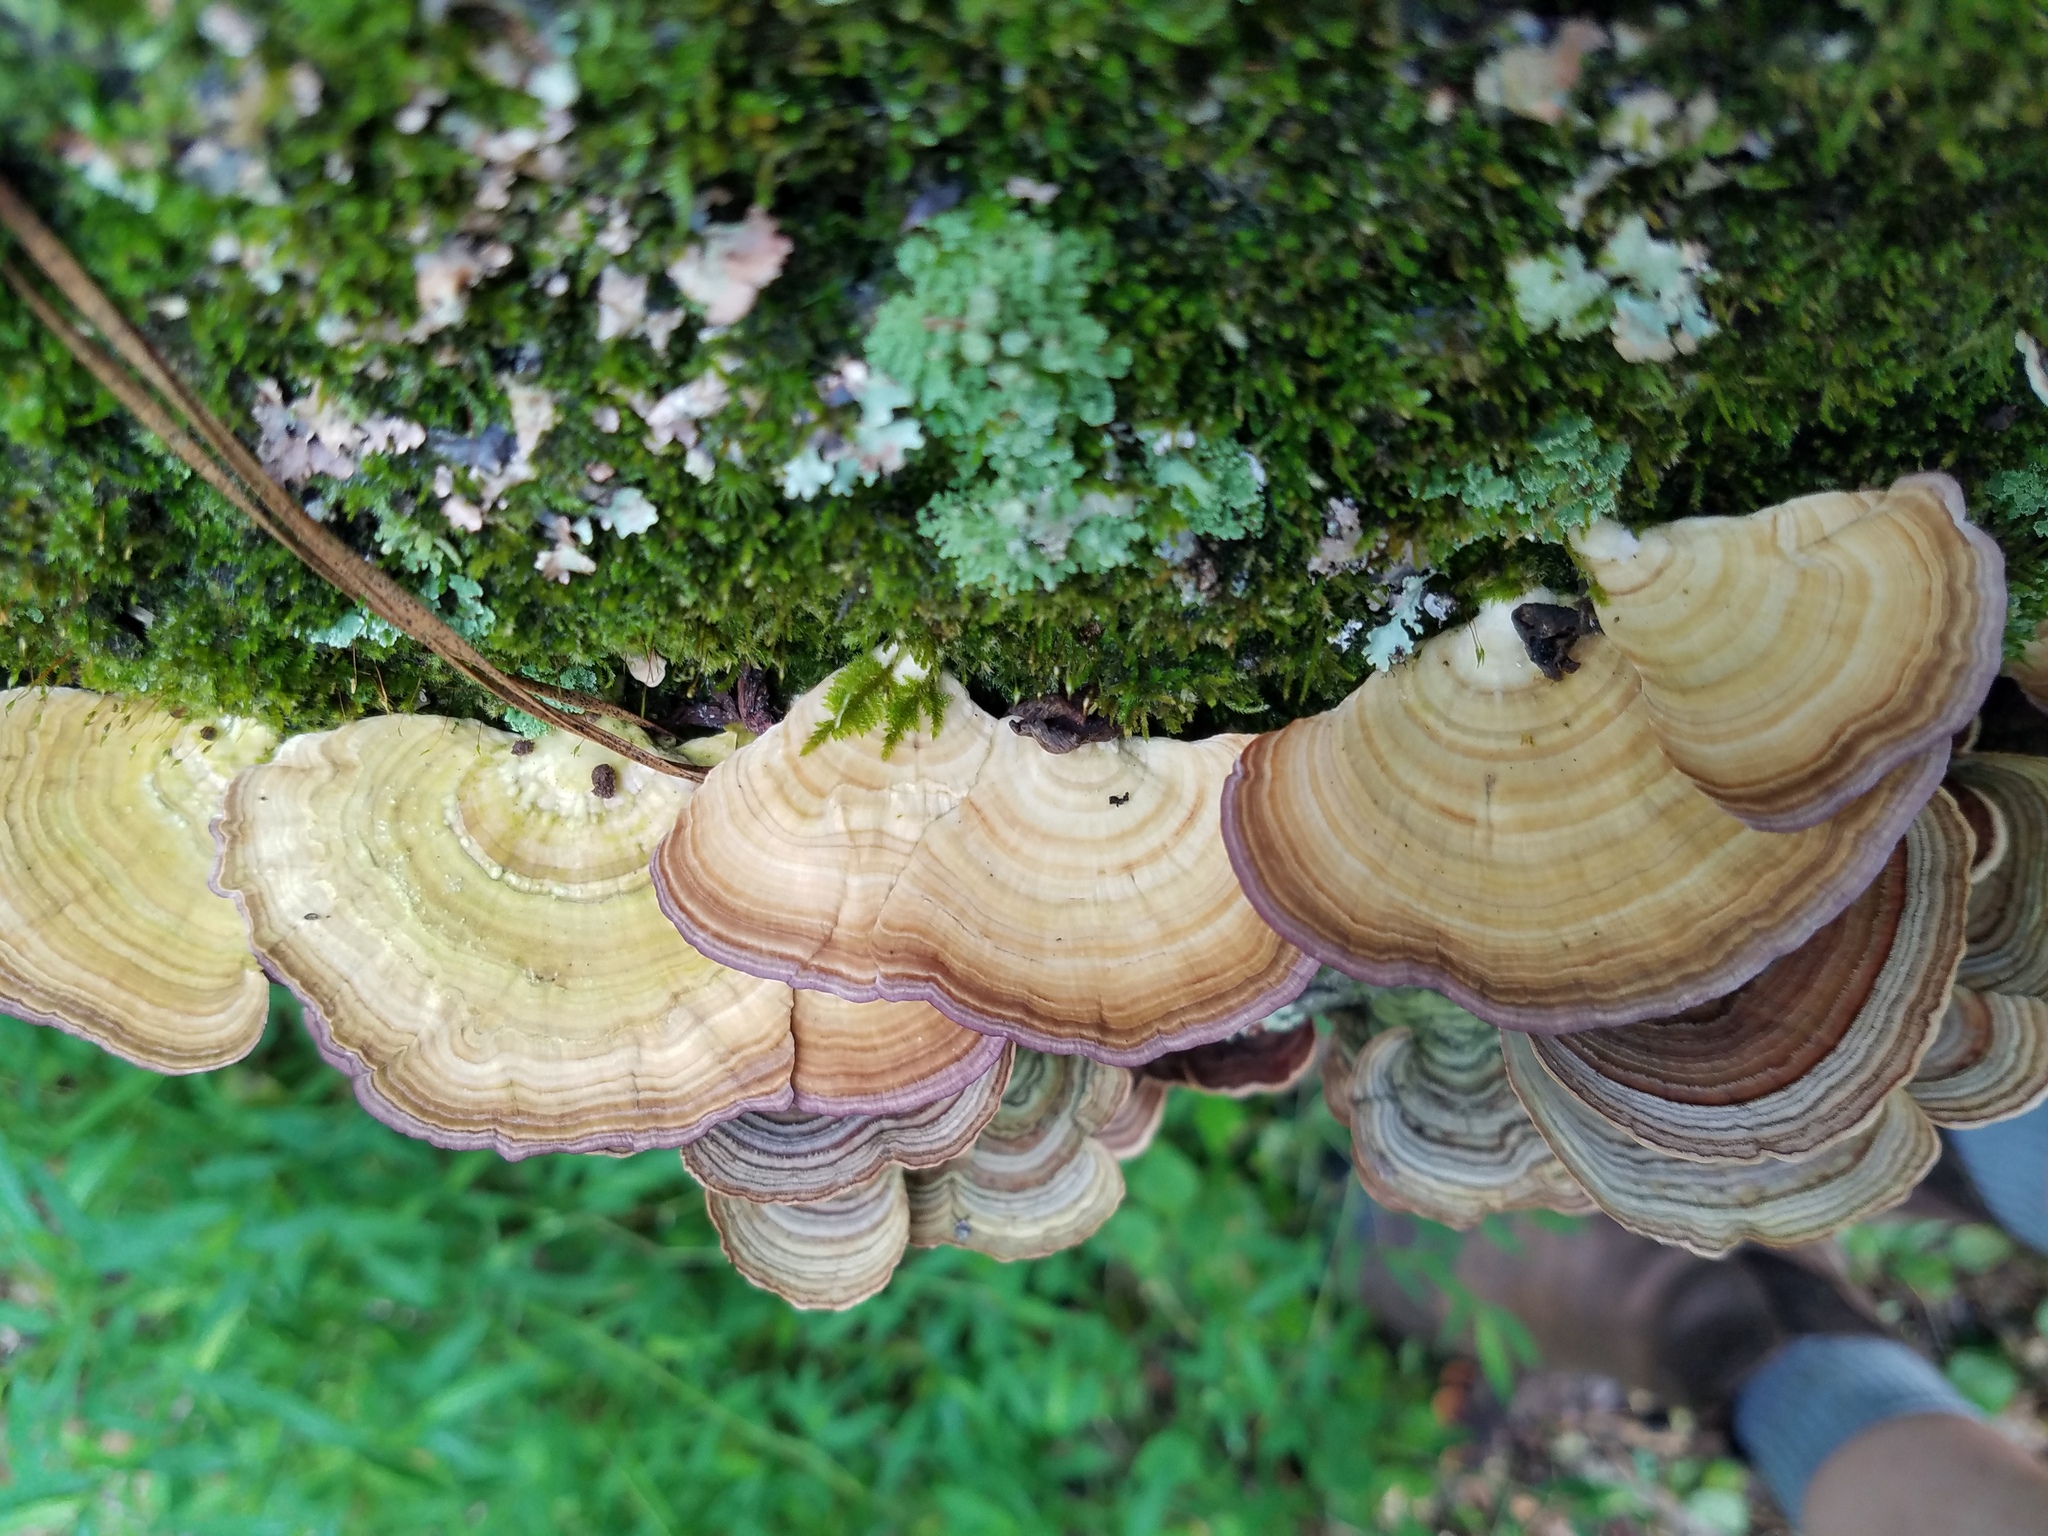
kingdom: Fungi
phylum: Basidiomycota
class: Agaricomycetes
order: Hymenochaetales
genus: Trichaptum
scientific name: Trichaptum biforme
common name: Violet-toothed polypore
